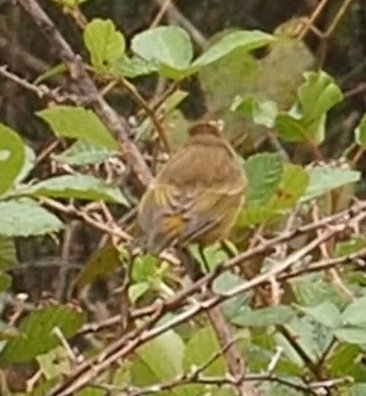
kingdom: Animalia
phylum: Chordata
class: Aves
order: Passeriformes
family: Parulidae
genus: Setophaga
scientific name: Setophaga palmarum
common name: Palm warbler
